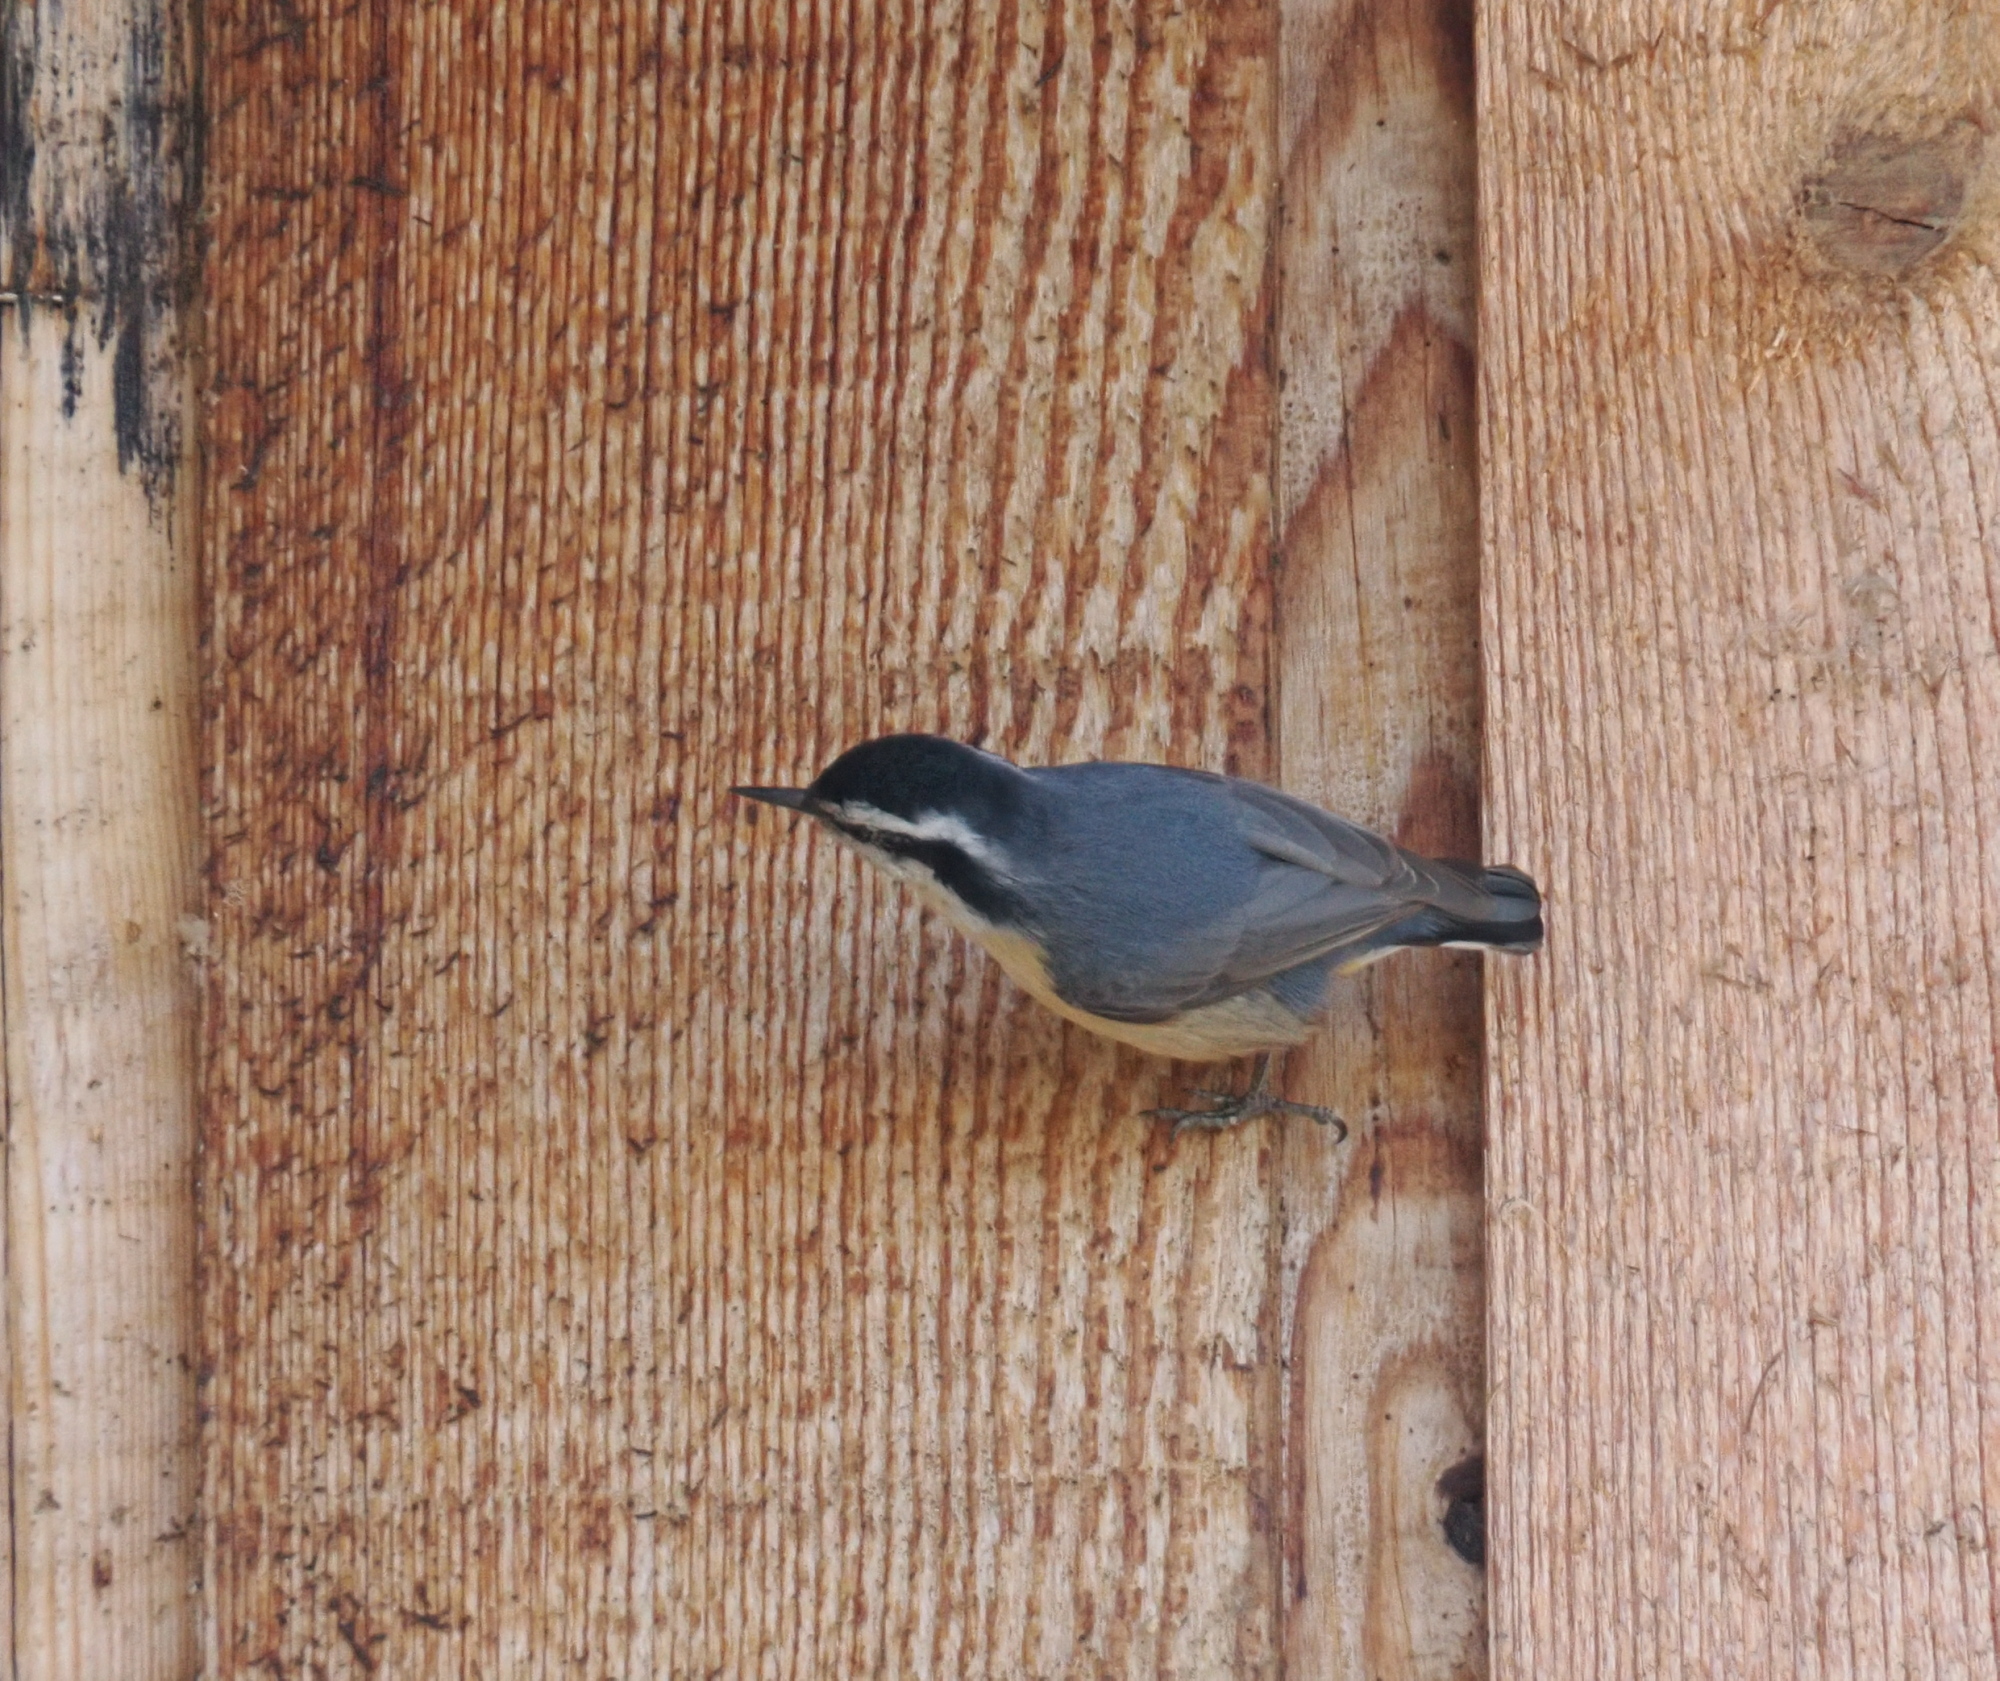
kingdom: Animalia
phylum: Chordata
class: Aves
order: Passeriformes
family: Sittidae
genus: Sitta
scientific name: Sitta canadensis
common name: Red-breasted nuthatch
